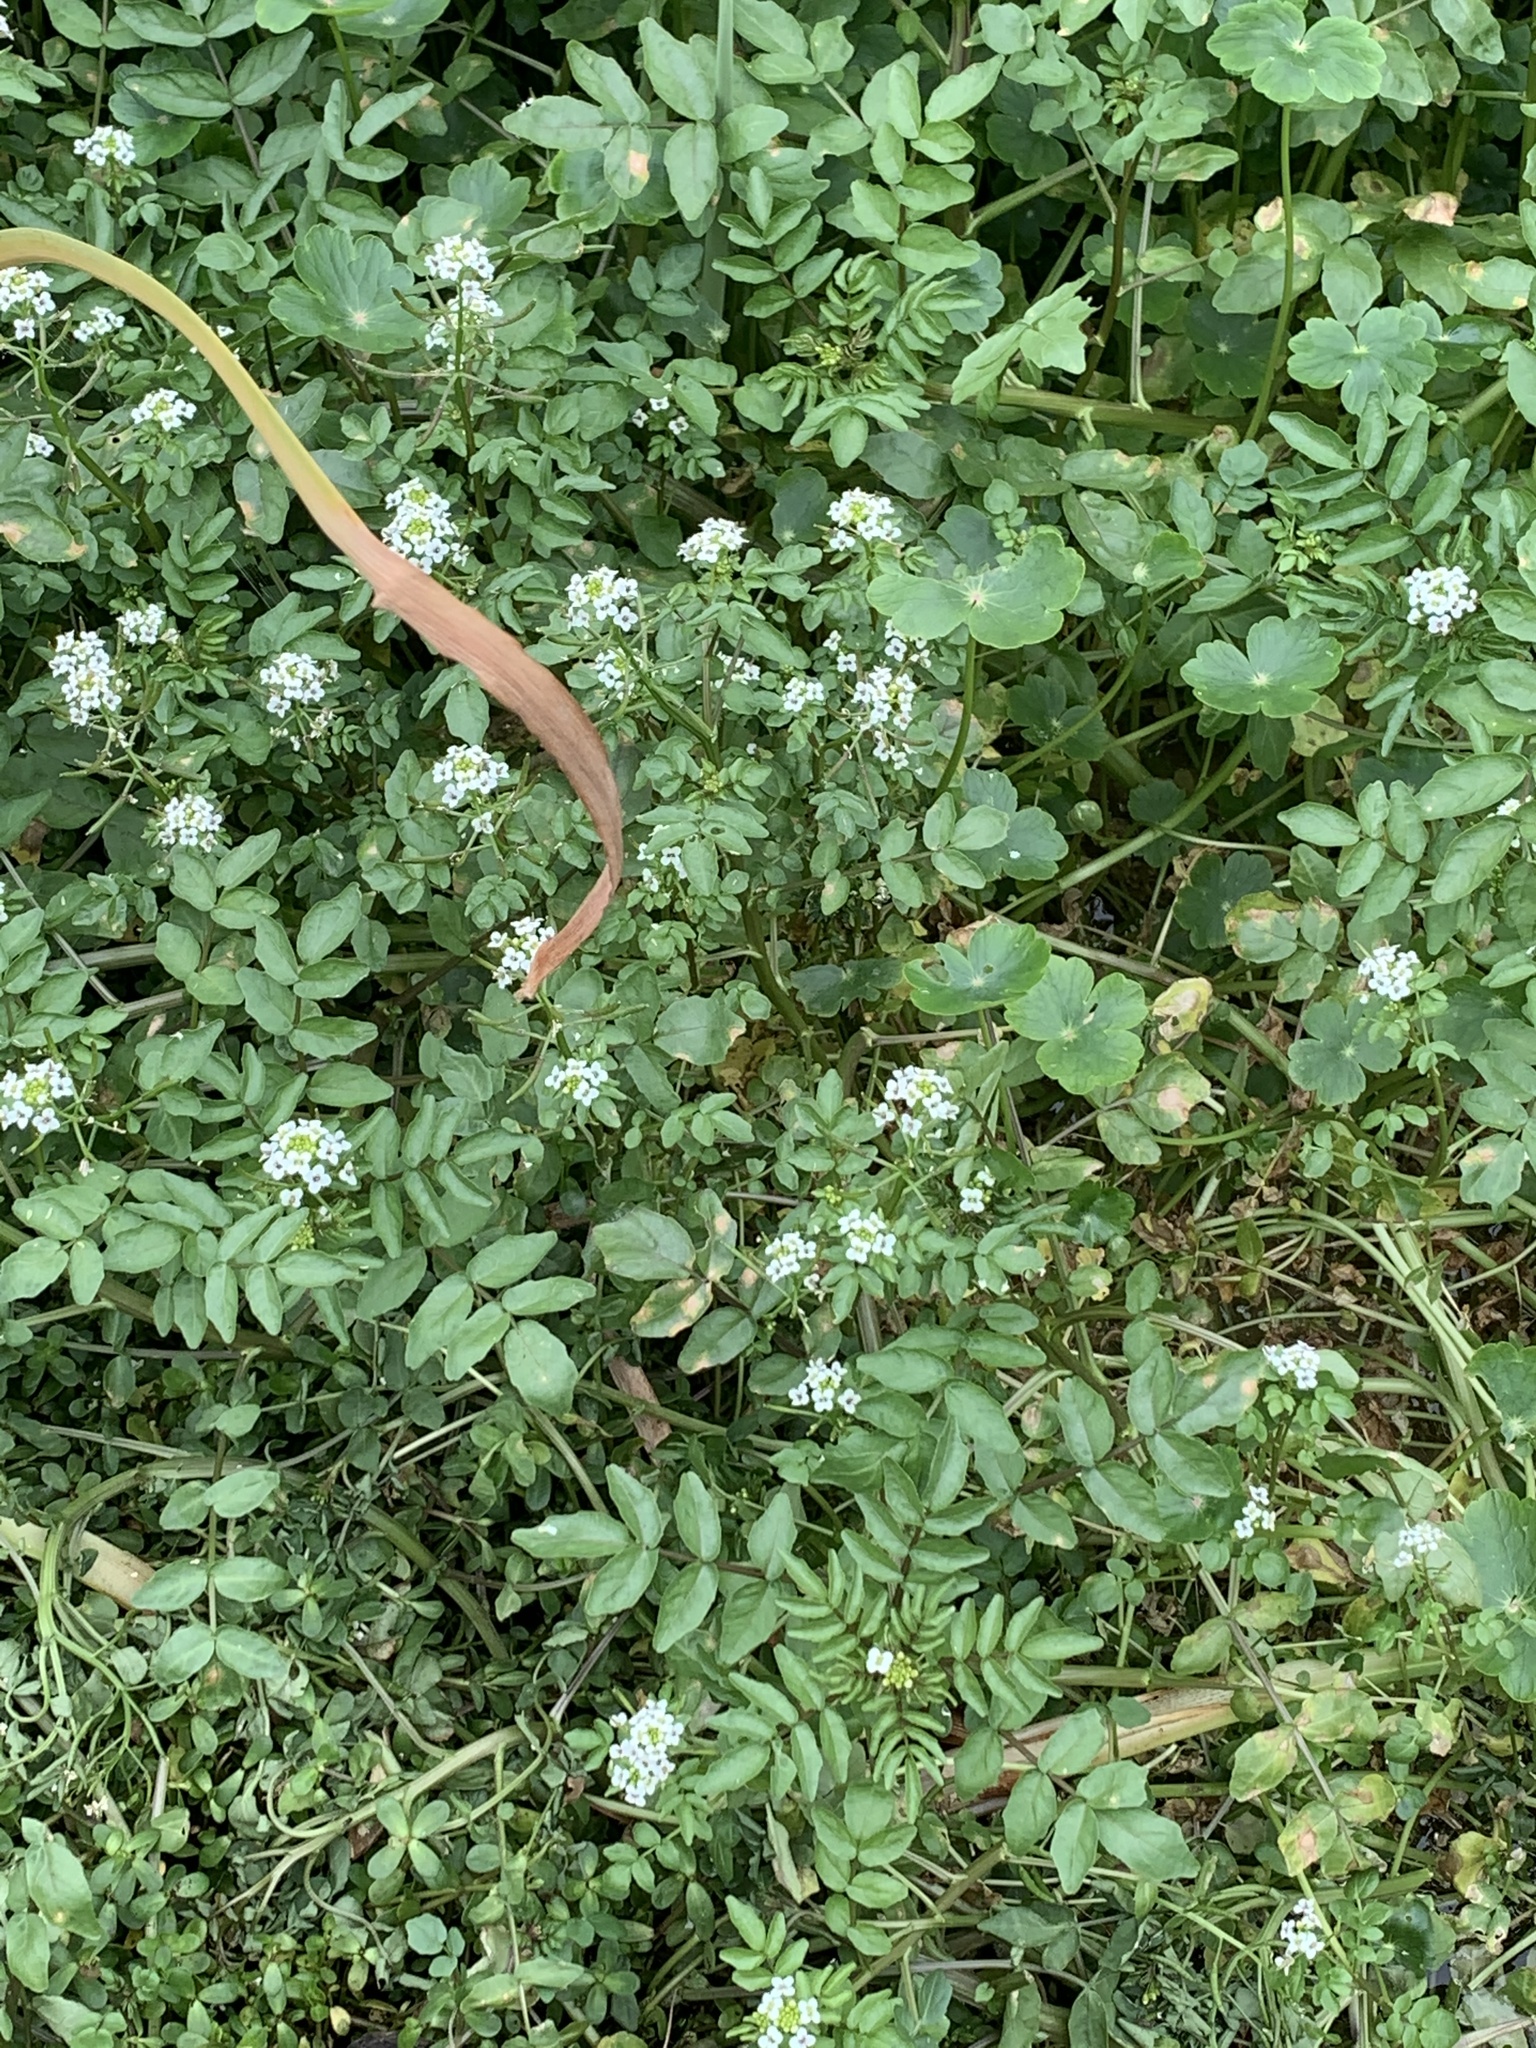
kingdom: Plantae
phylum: Tracheophyta
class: Magnoliopsida
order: Brassicales
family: Brassicaceae
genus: Nasturtium
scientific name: Nasturtium officinale
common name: Watercress
